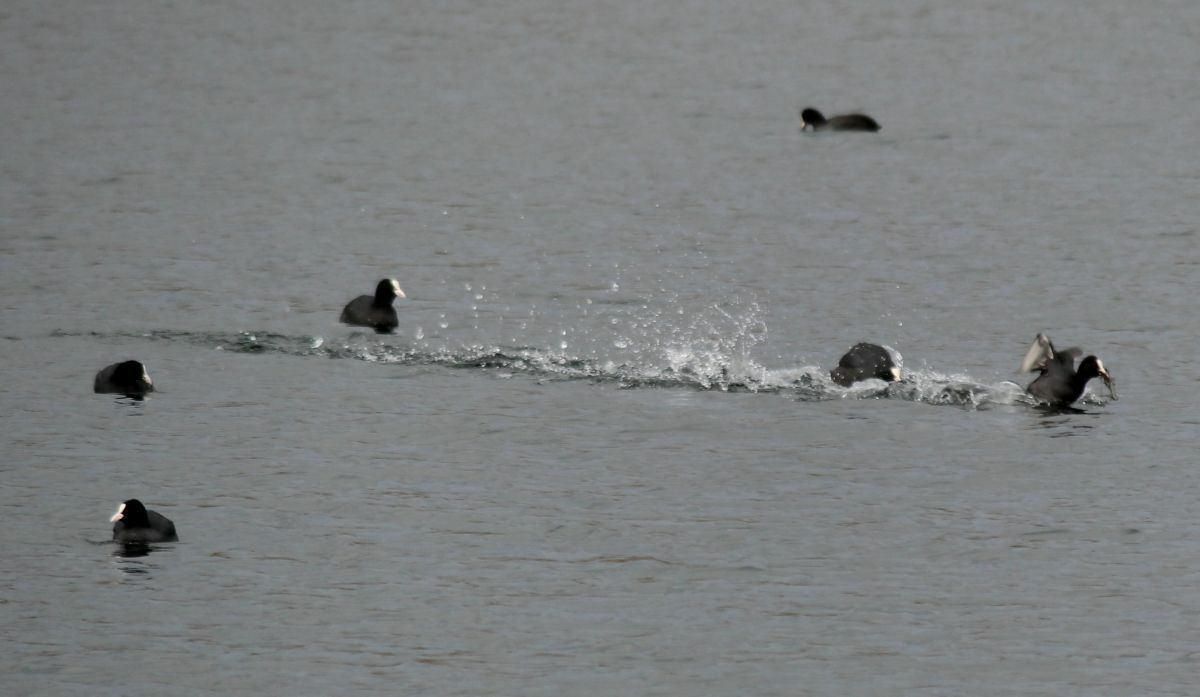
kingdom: Animalia
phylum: Chordata
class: Aves
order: Gruiformes
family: Rallidae
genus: Fulica
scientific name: Fulica atra
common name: Eurasian coot
